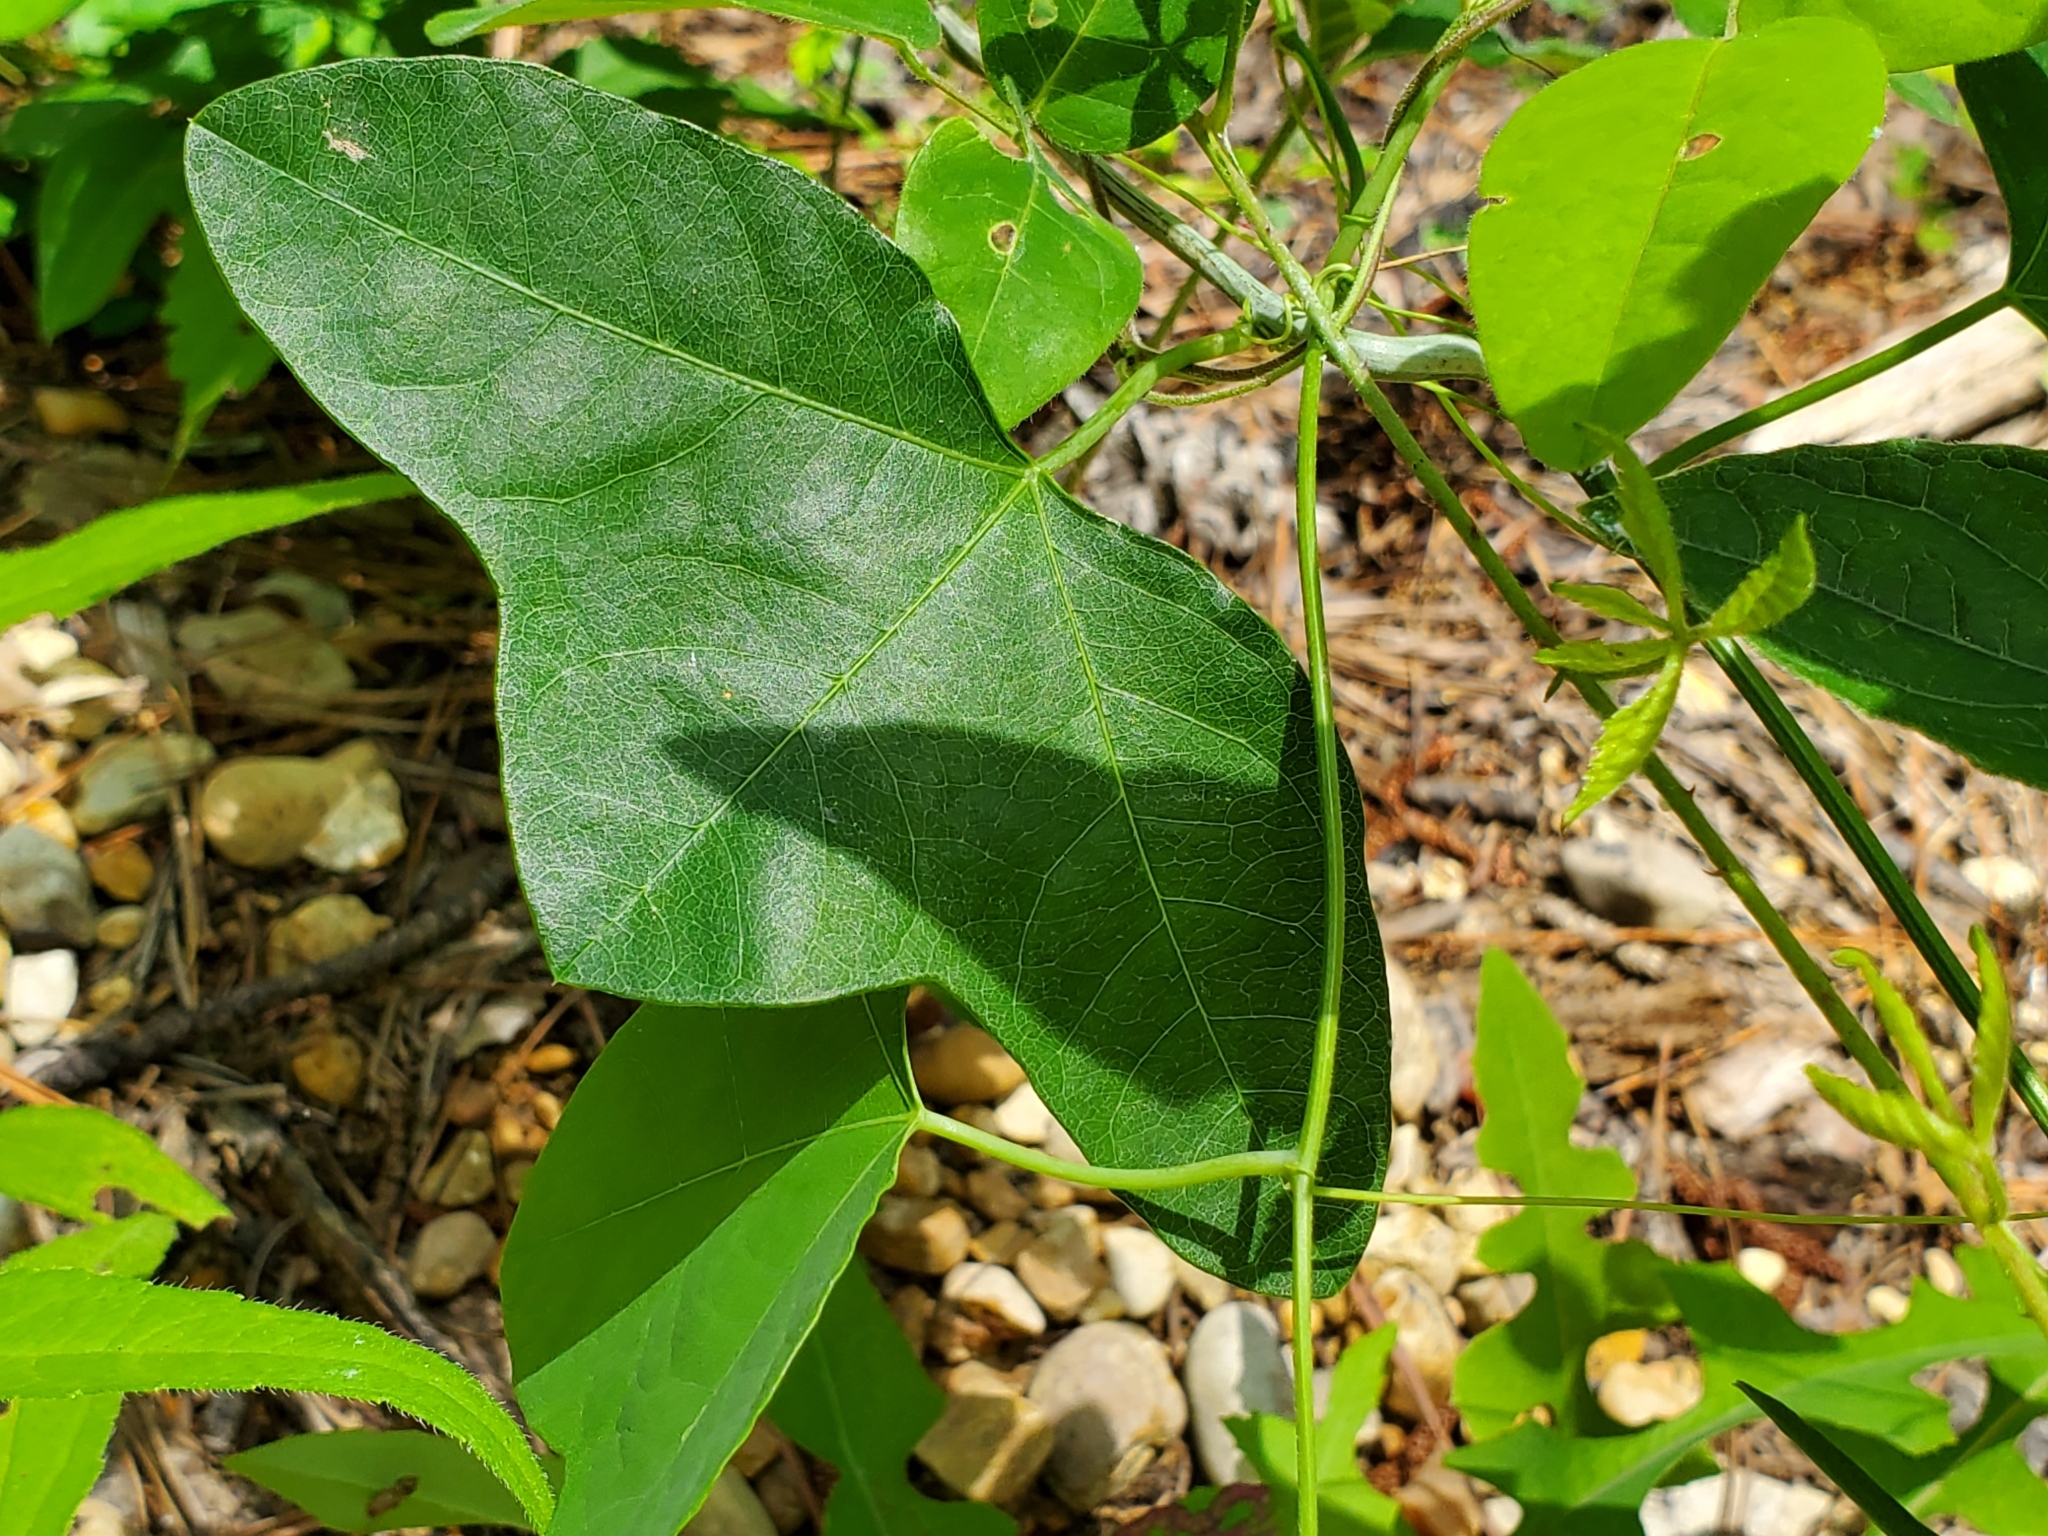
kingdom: Plantae
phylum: Tracheophyta
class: Magnoliopsida
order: Malpighiales
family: Passifloraceae
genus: Passiflora
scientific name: Passiflora lutea
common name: Yellow passionflower
